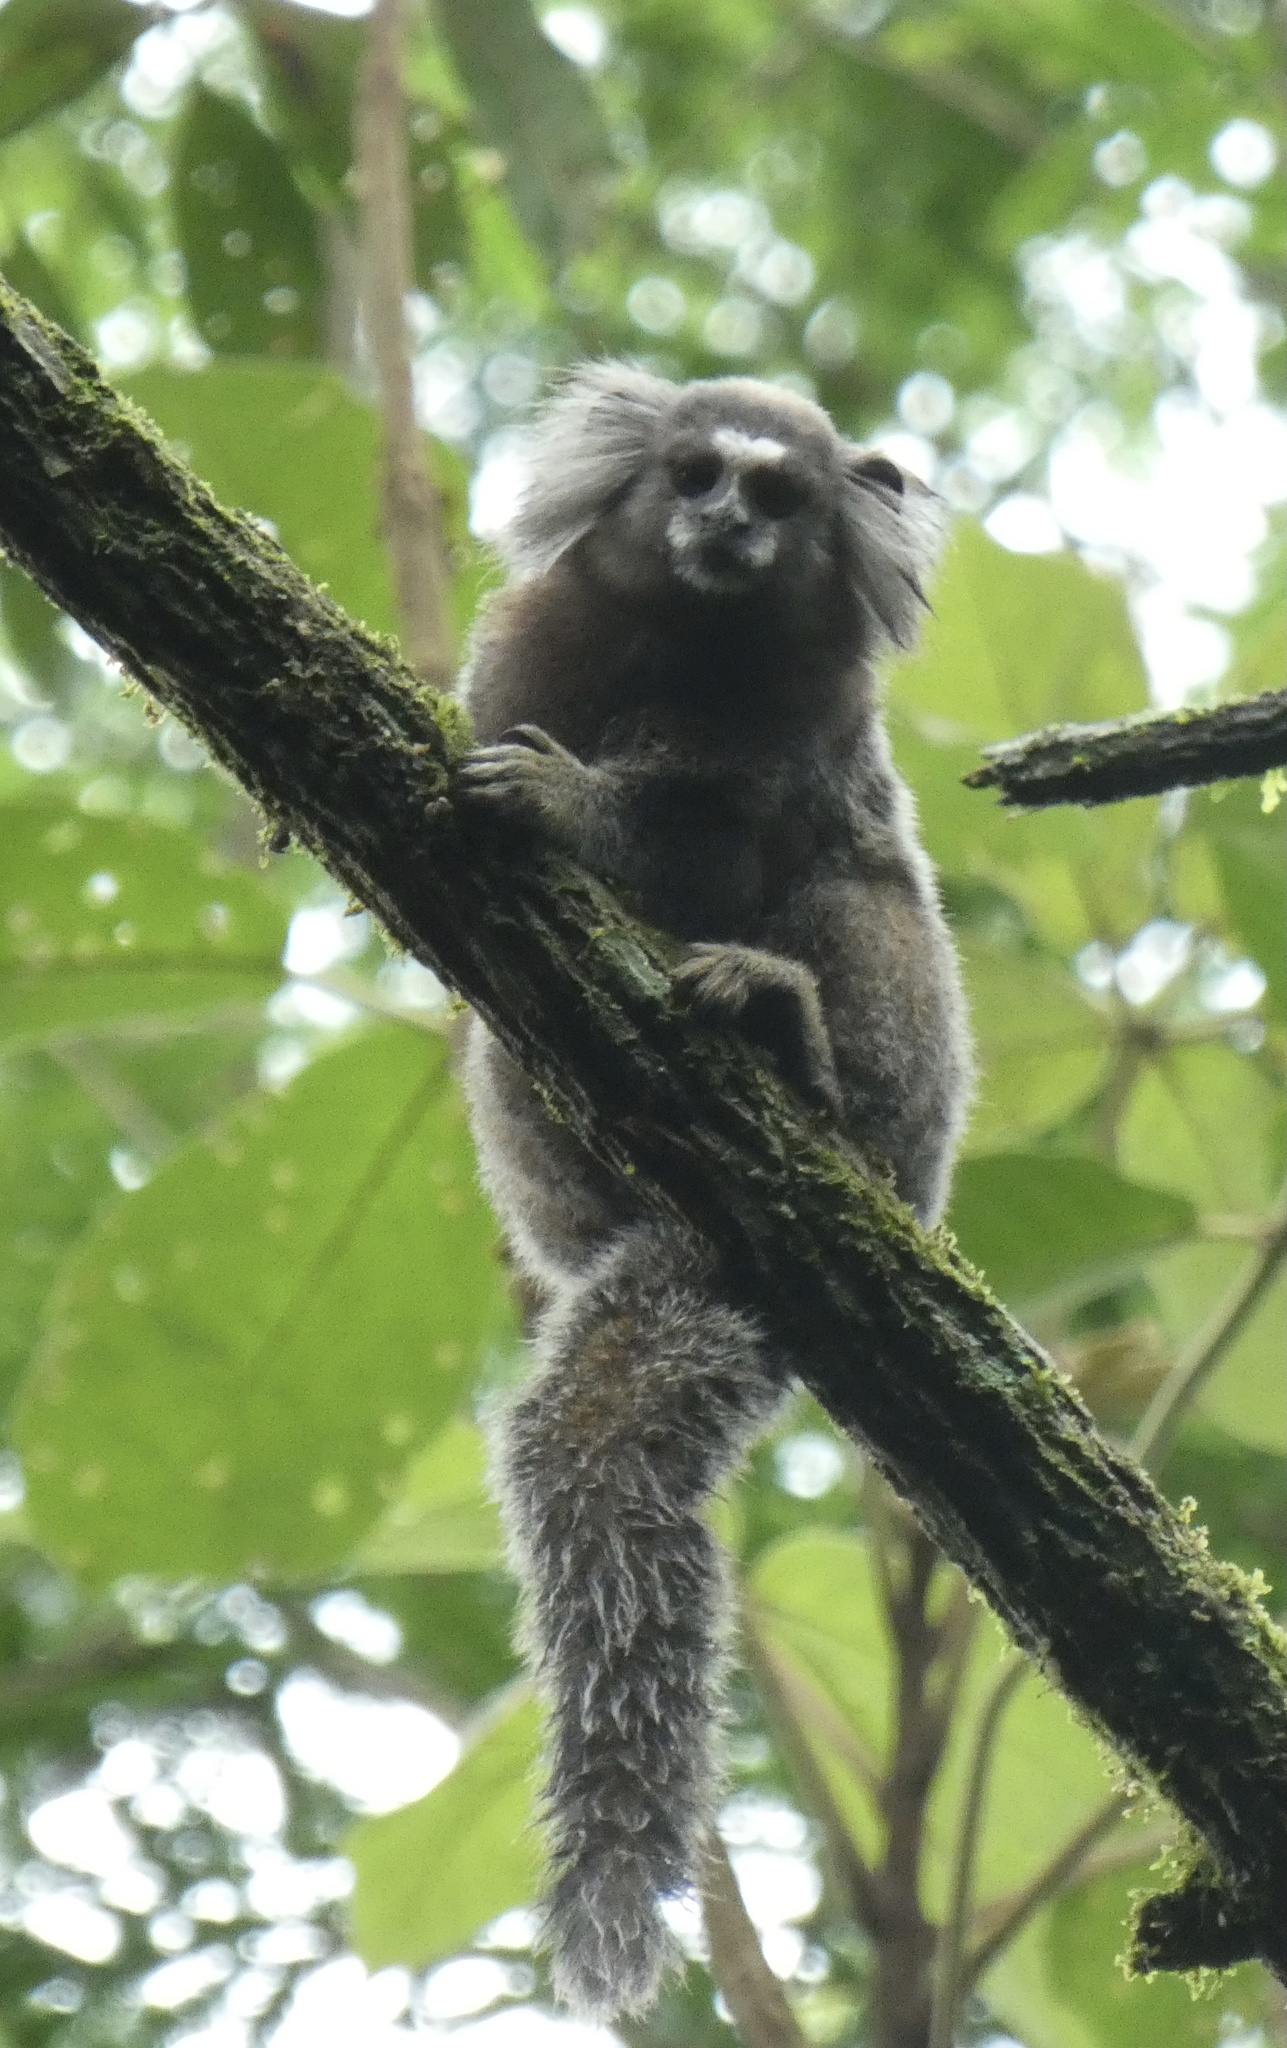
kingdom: Animalia
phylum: Chordata
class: Mammalia
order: Primates
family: Callitrichidae
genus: Callithrix
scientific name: Callithrix jacchus
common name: Common marmoset
